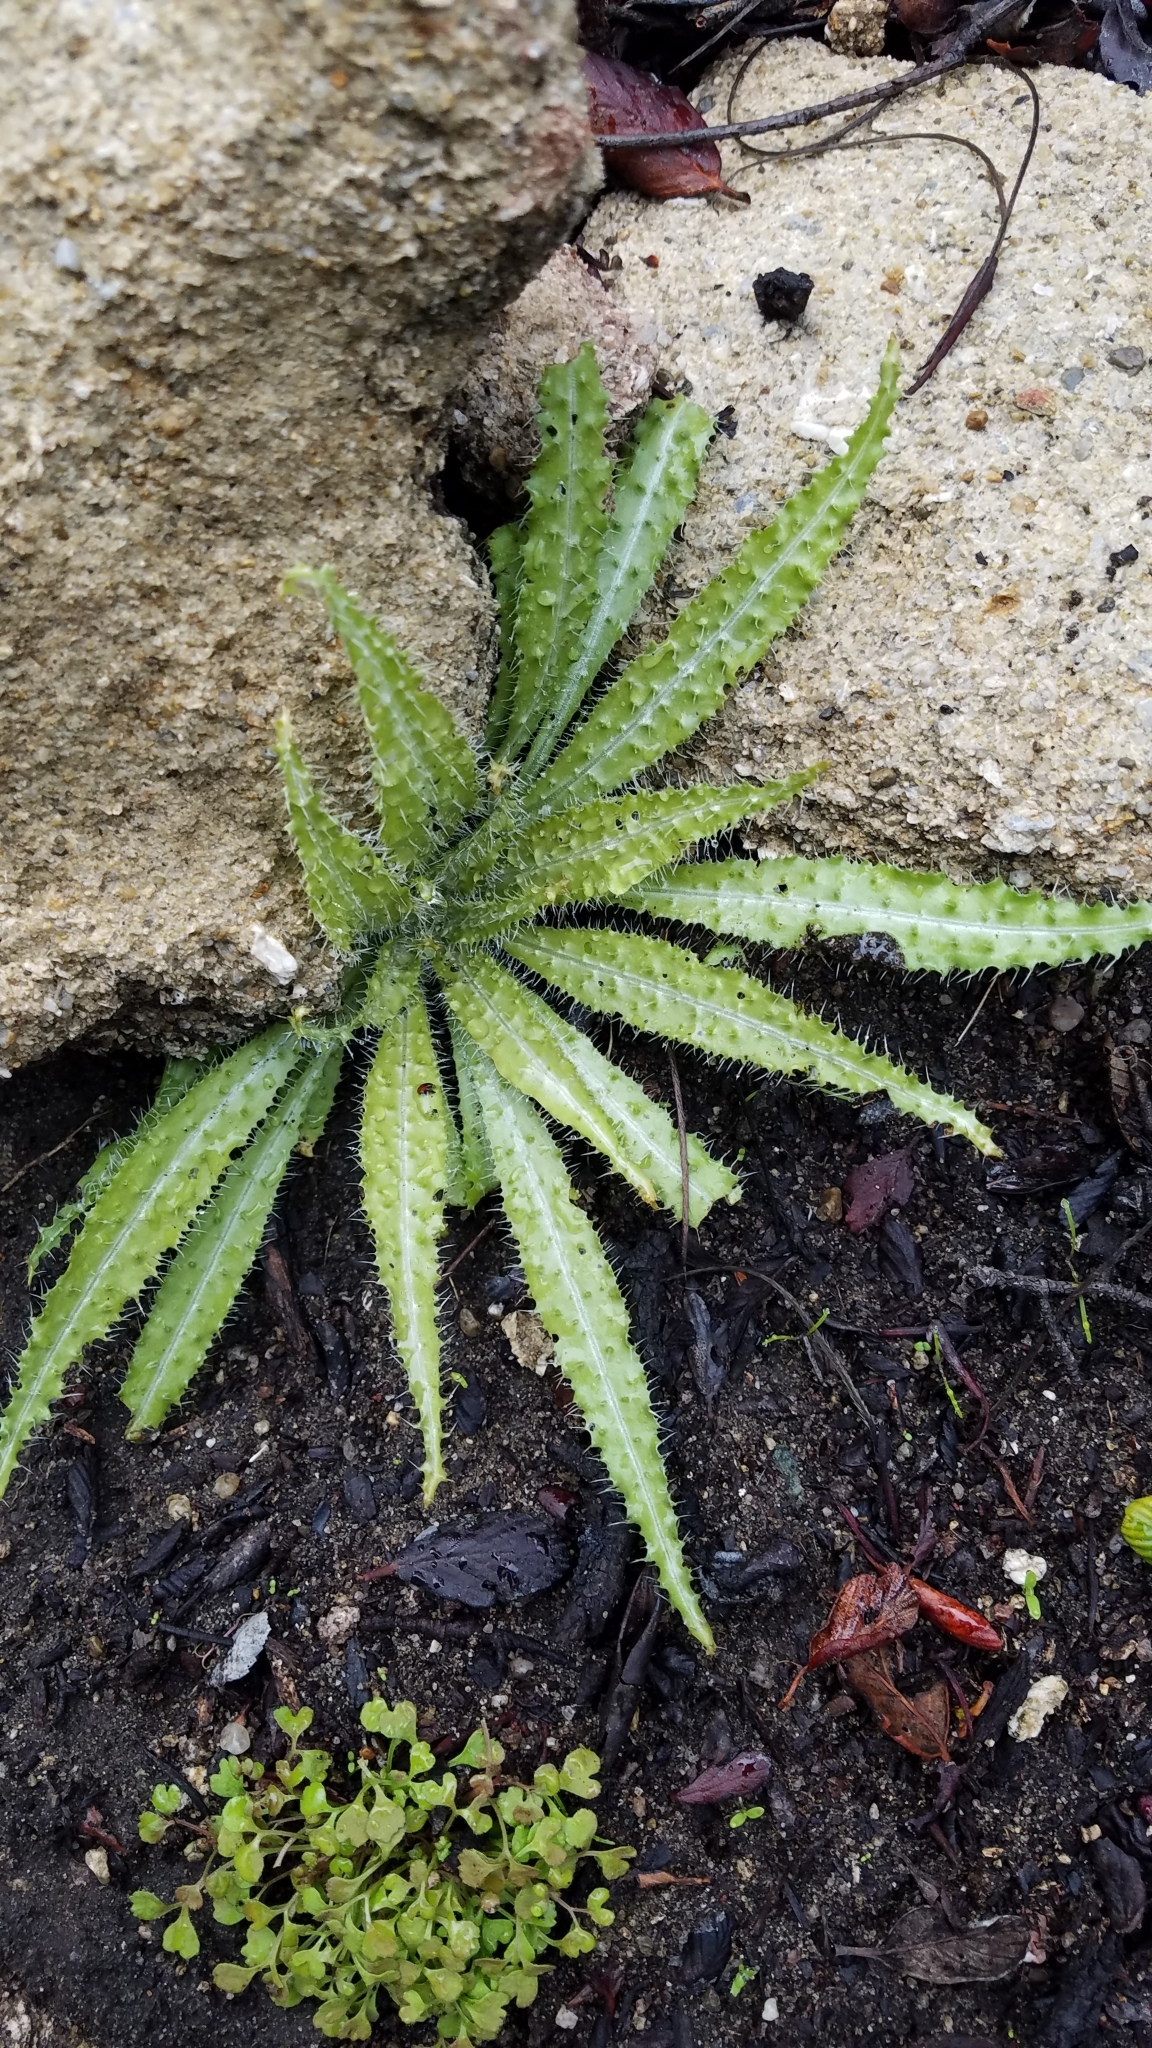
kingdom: Plantae
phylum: Tracheophyta
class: Magnoliopsida
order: Boraginales
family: Boraginaceae
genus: Amsinckia
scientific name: Amsinckia spectabilis
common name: Seaside fiddleneck
